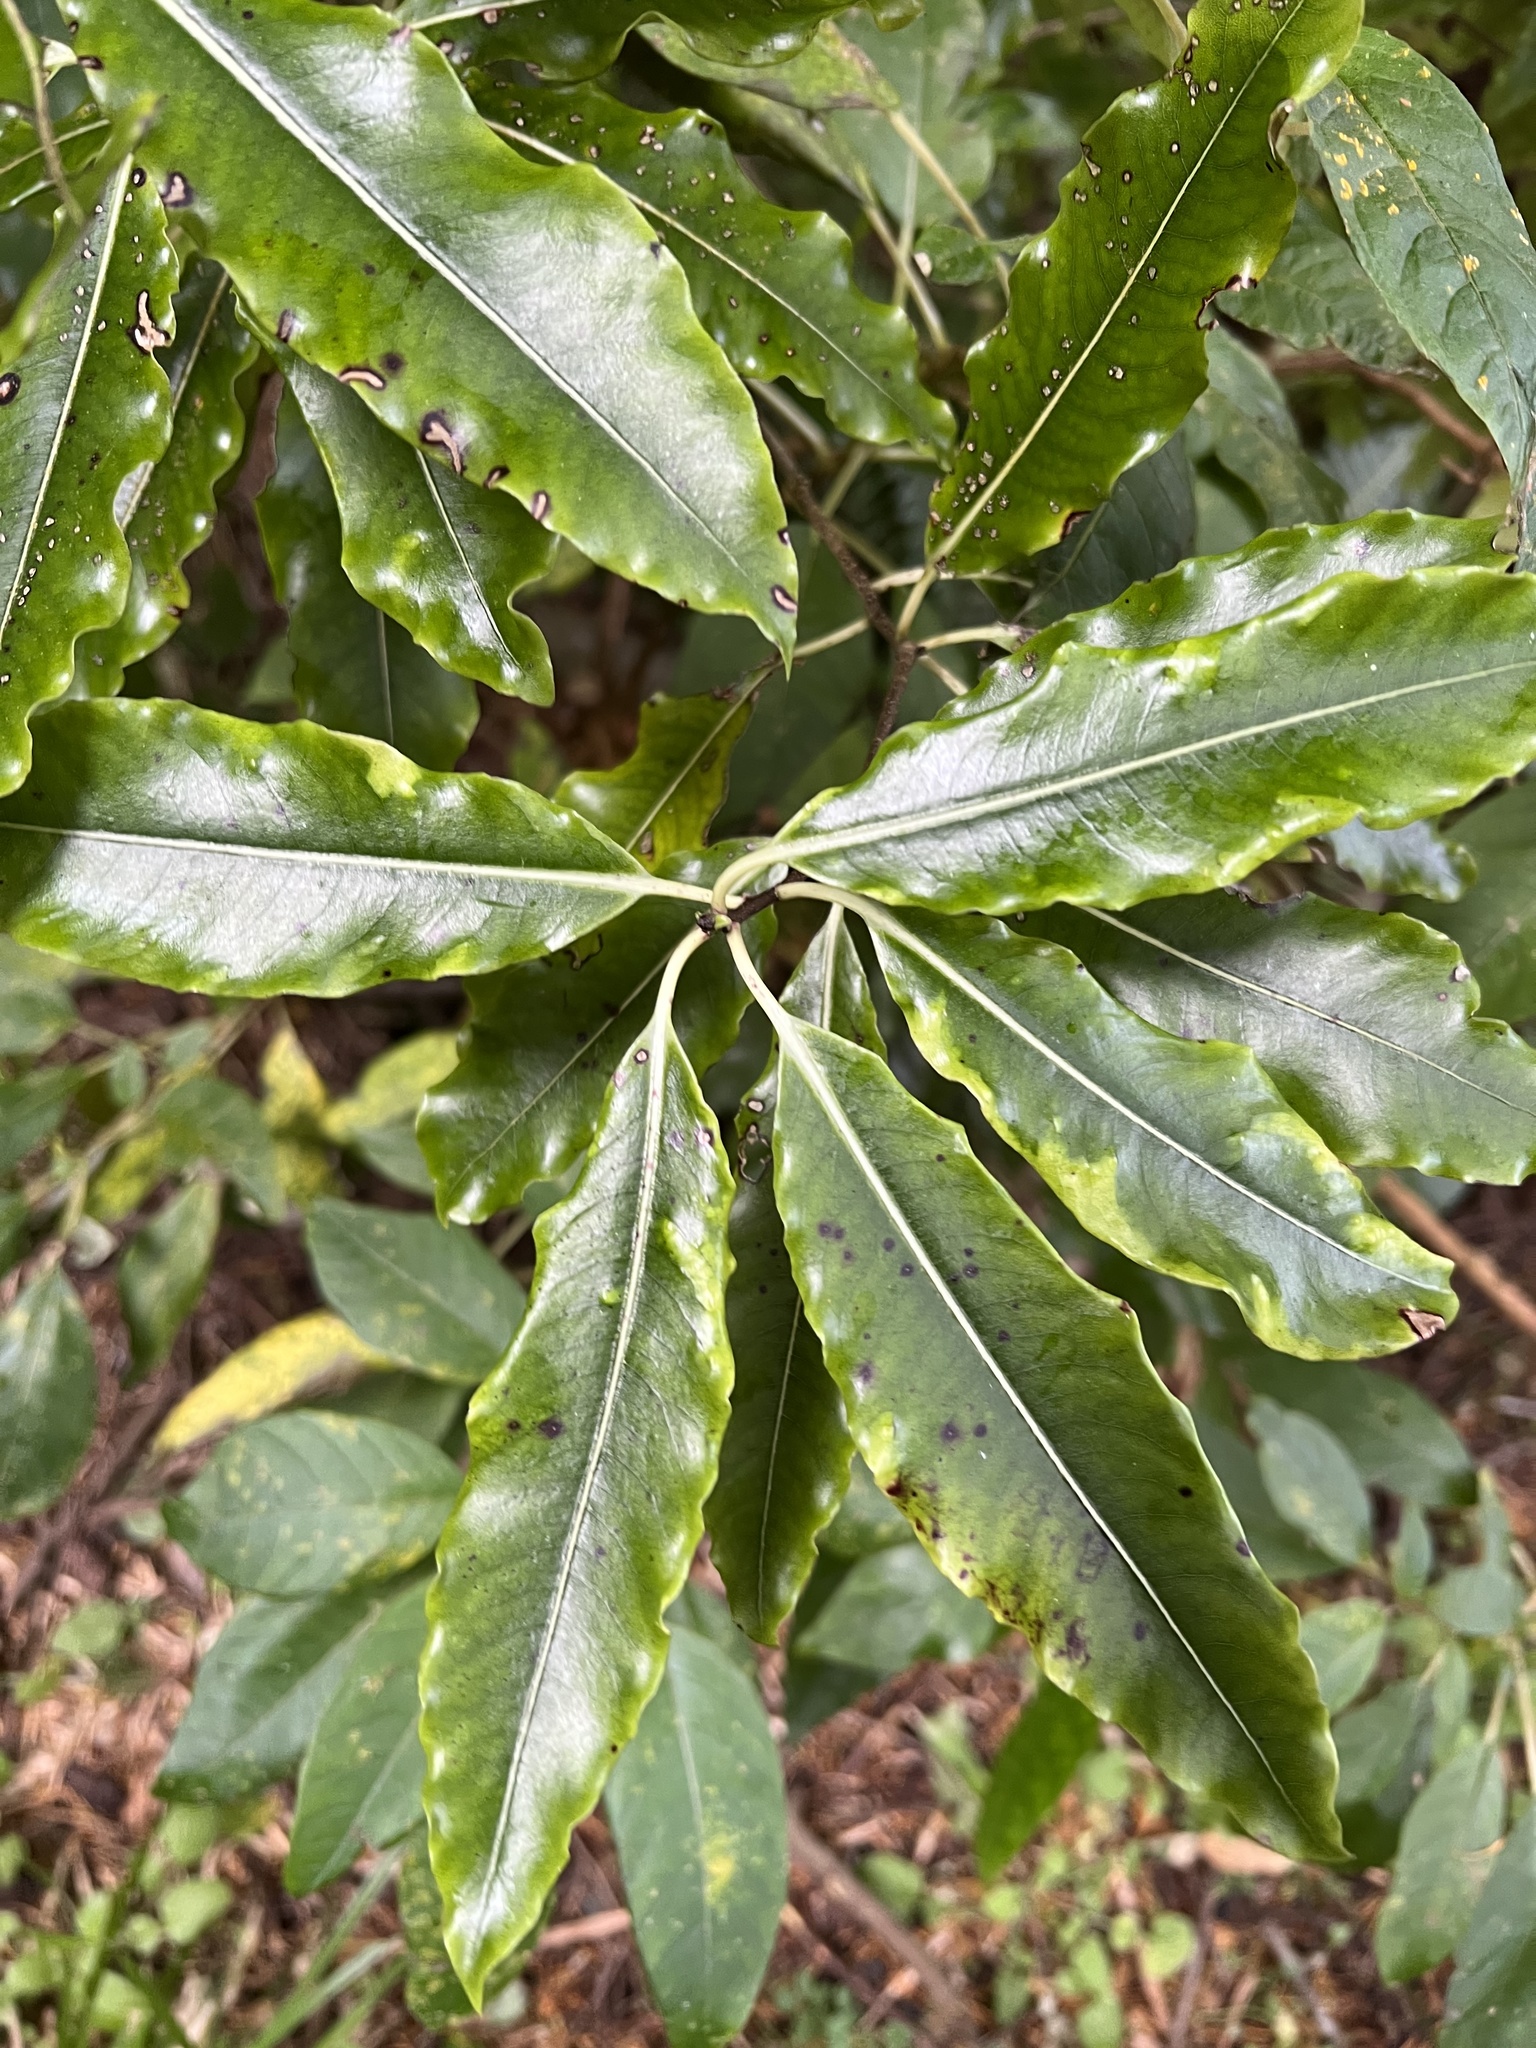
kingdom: Plantae
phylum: Tracheophyta
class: Magnoliopsida
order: Apiales
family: Pittosporaceae
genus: Pittosporum
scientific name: Pittosporum eugenioides
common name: Lemonwood
